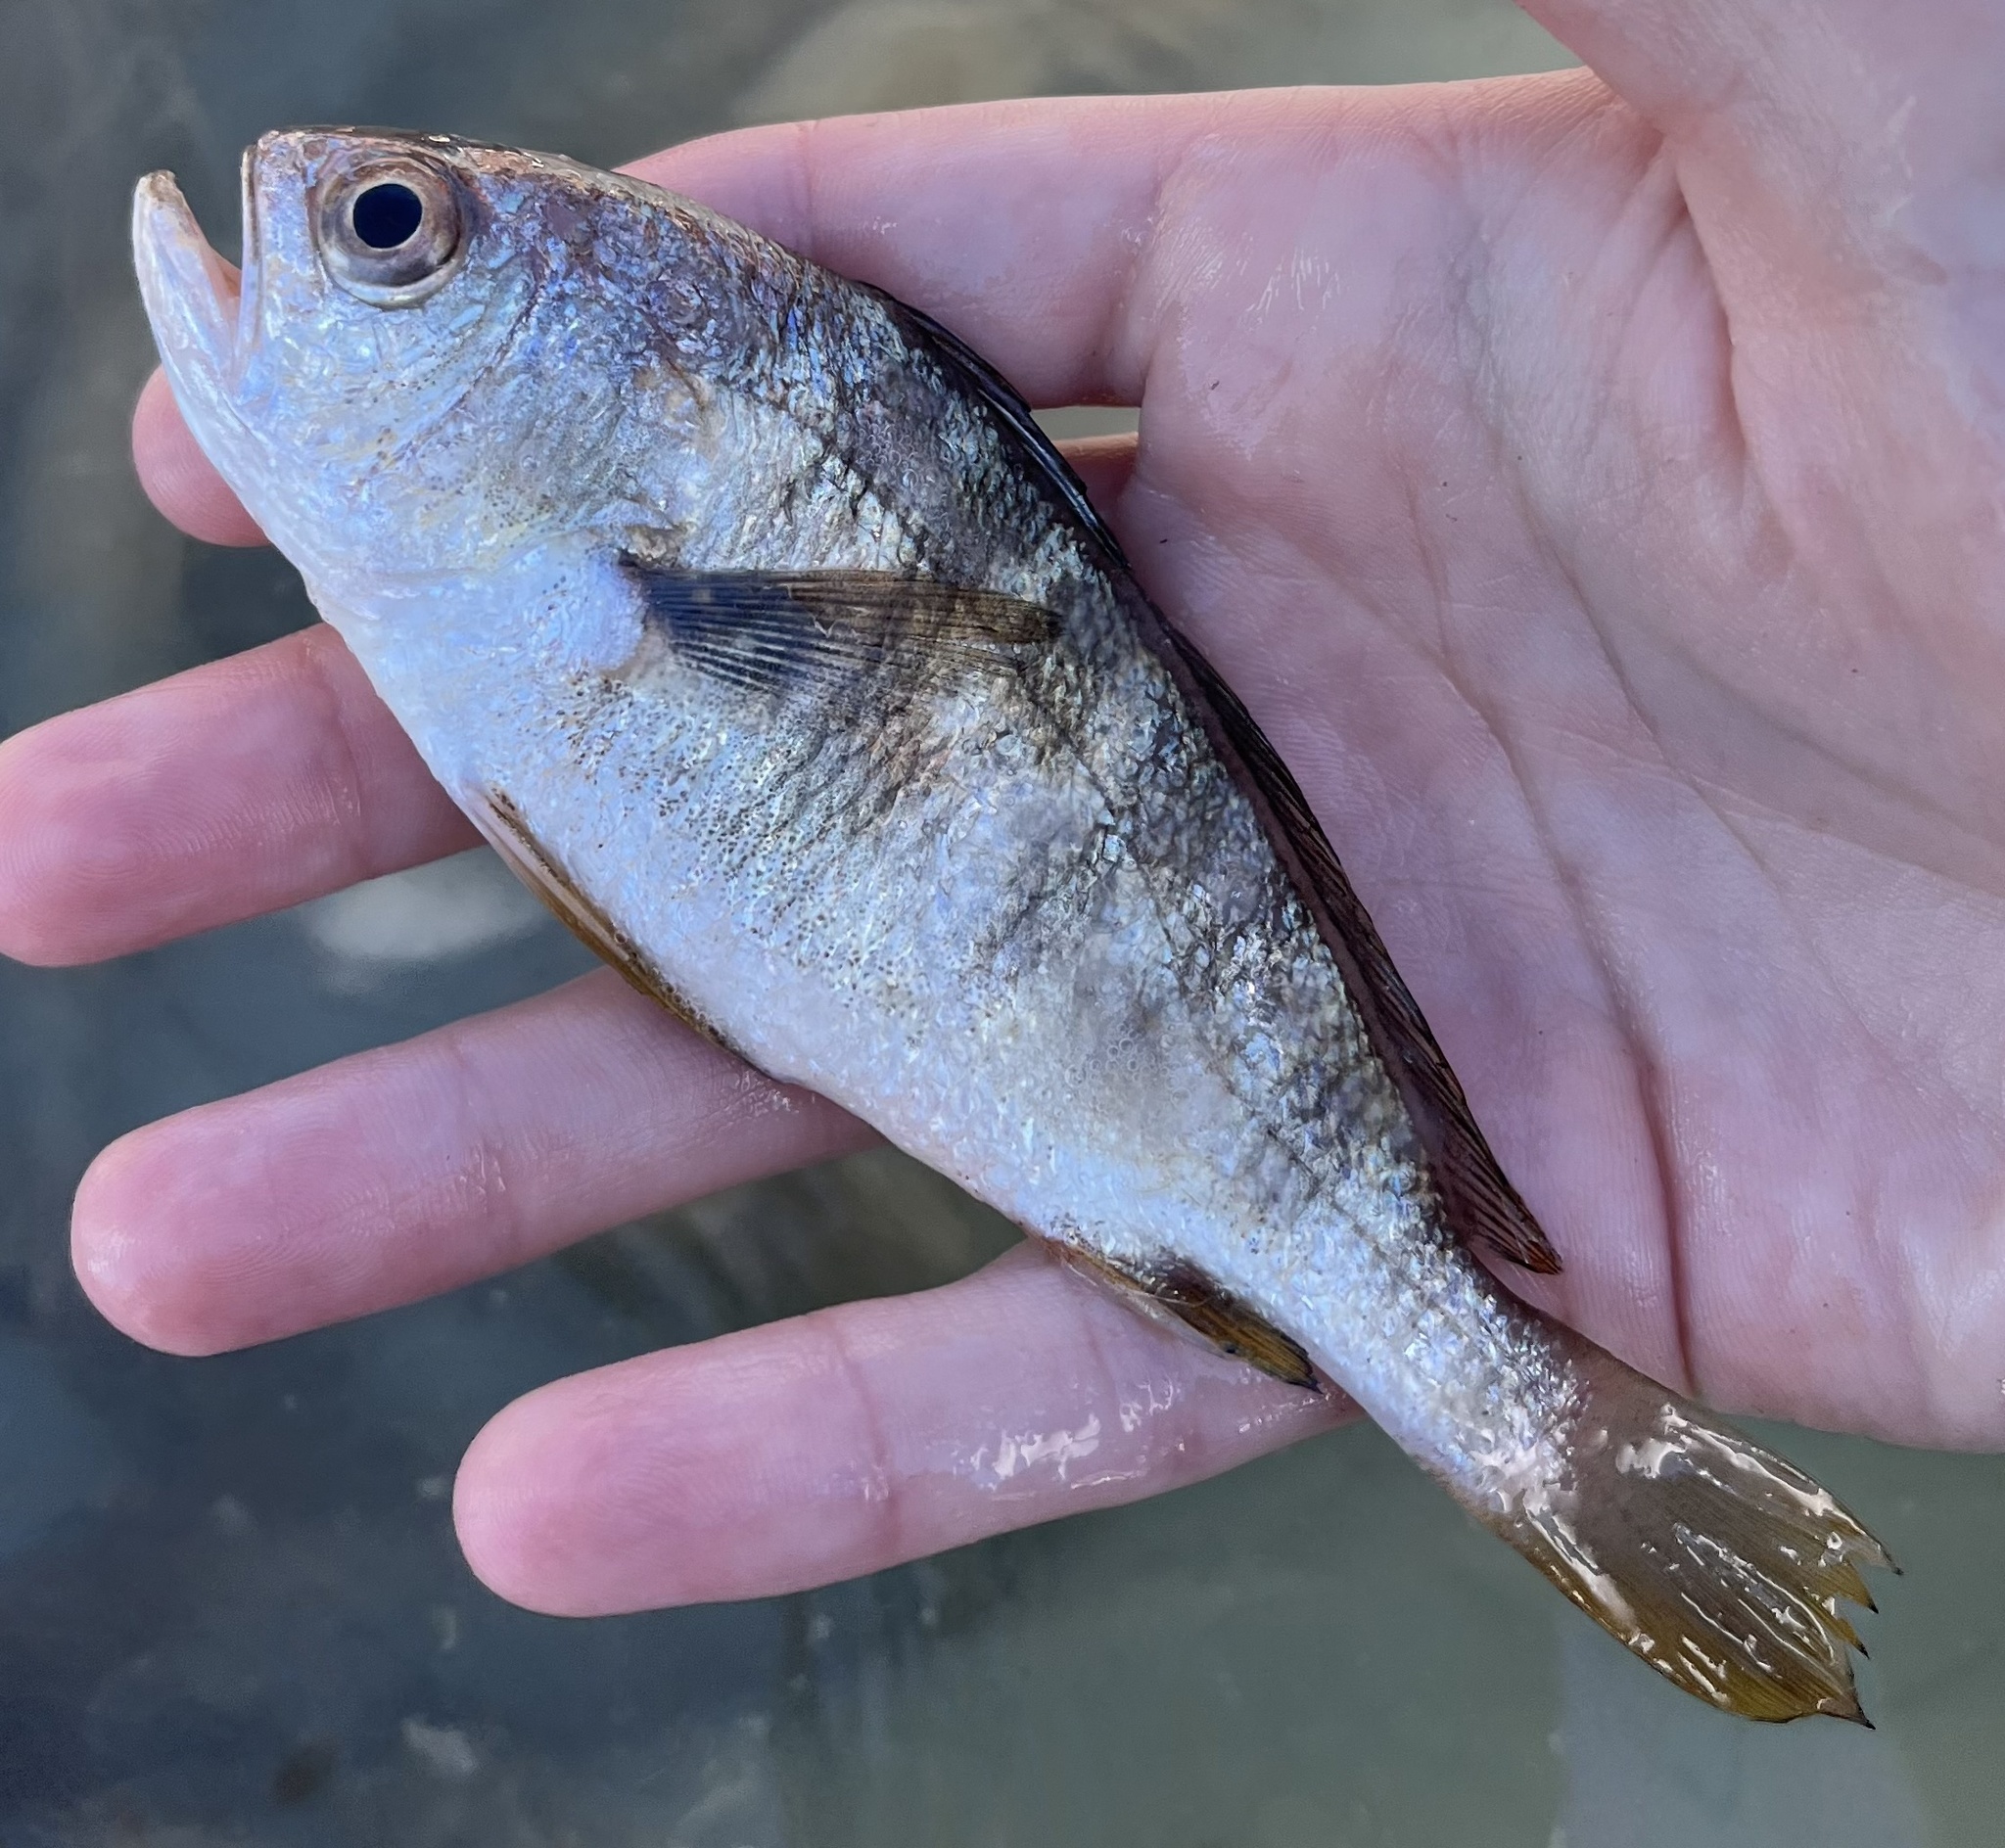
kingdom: Animalia
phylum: Chordata
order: Perciformes
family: Sciaenidae
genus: Larimus
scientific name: Larimus fasciatus
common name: Banded drum
